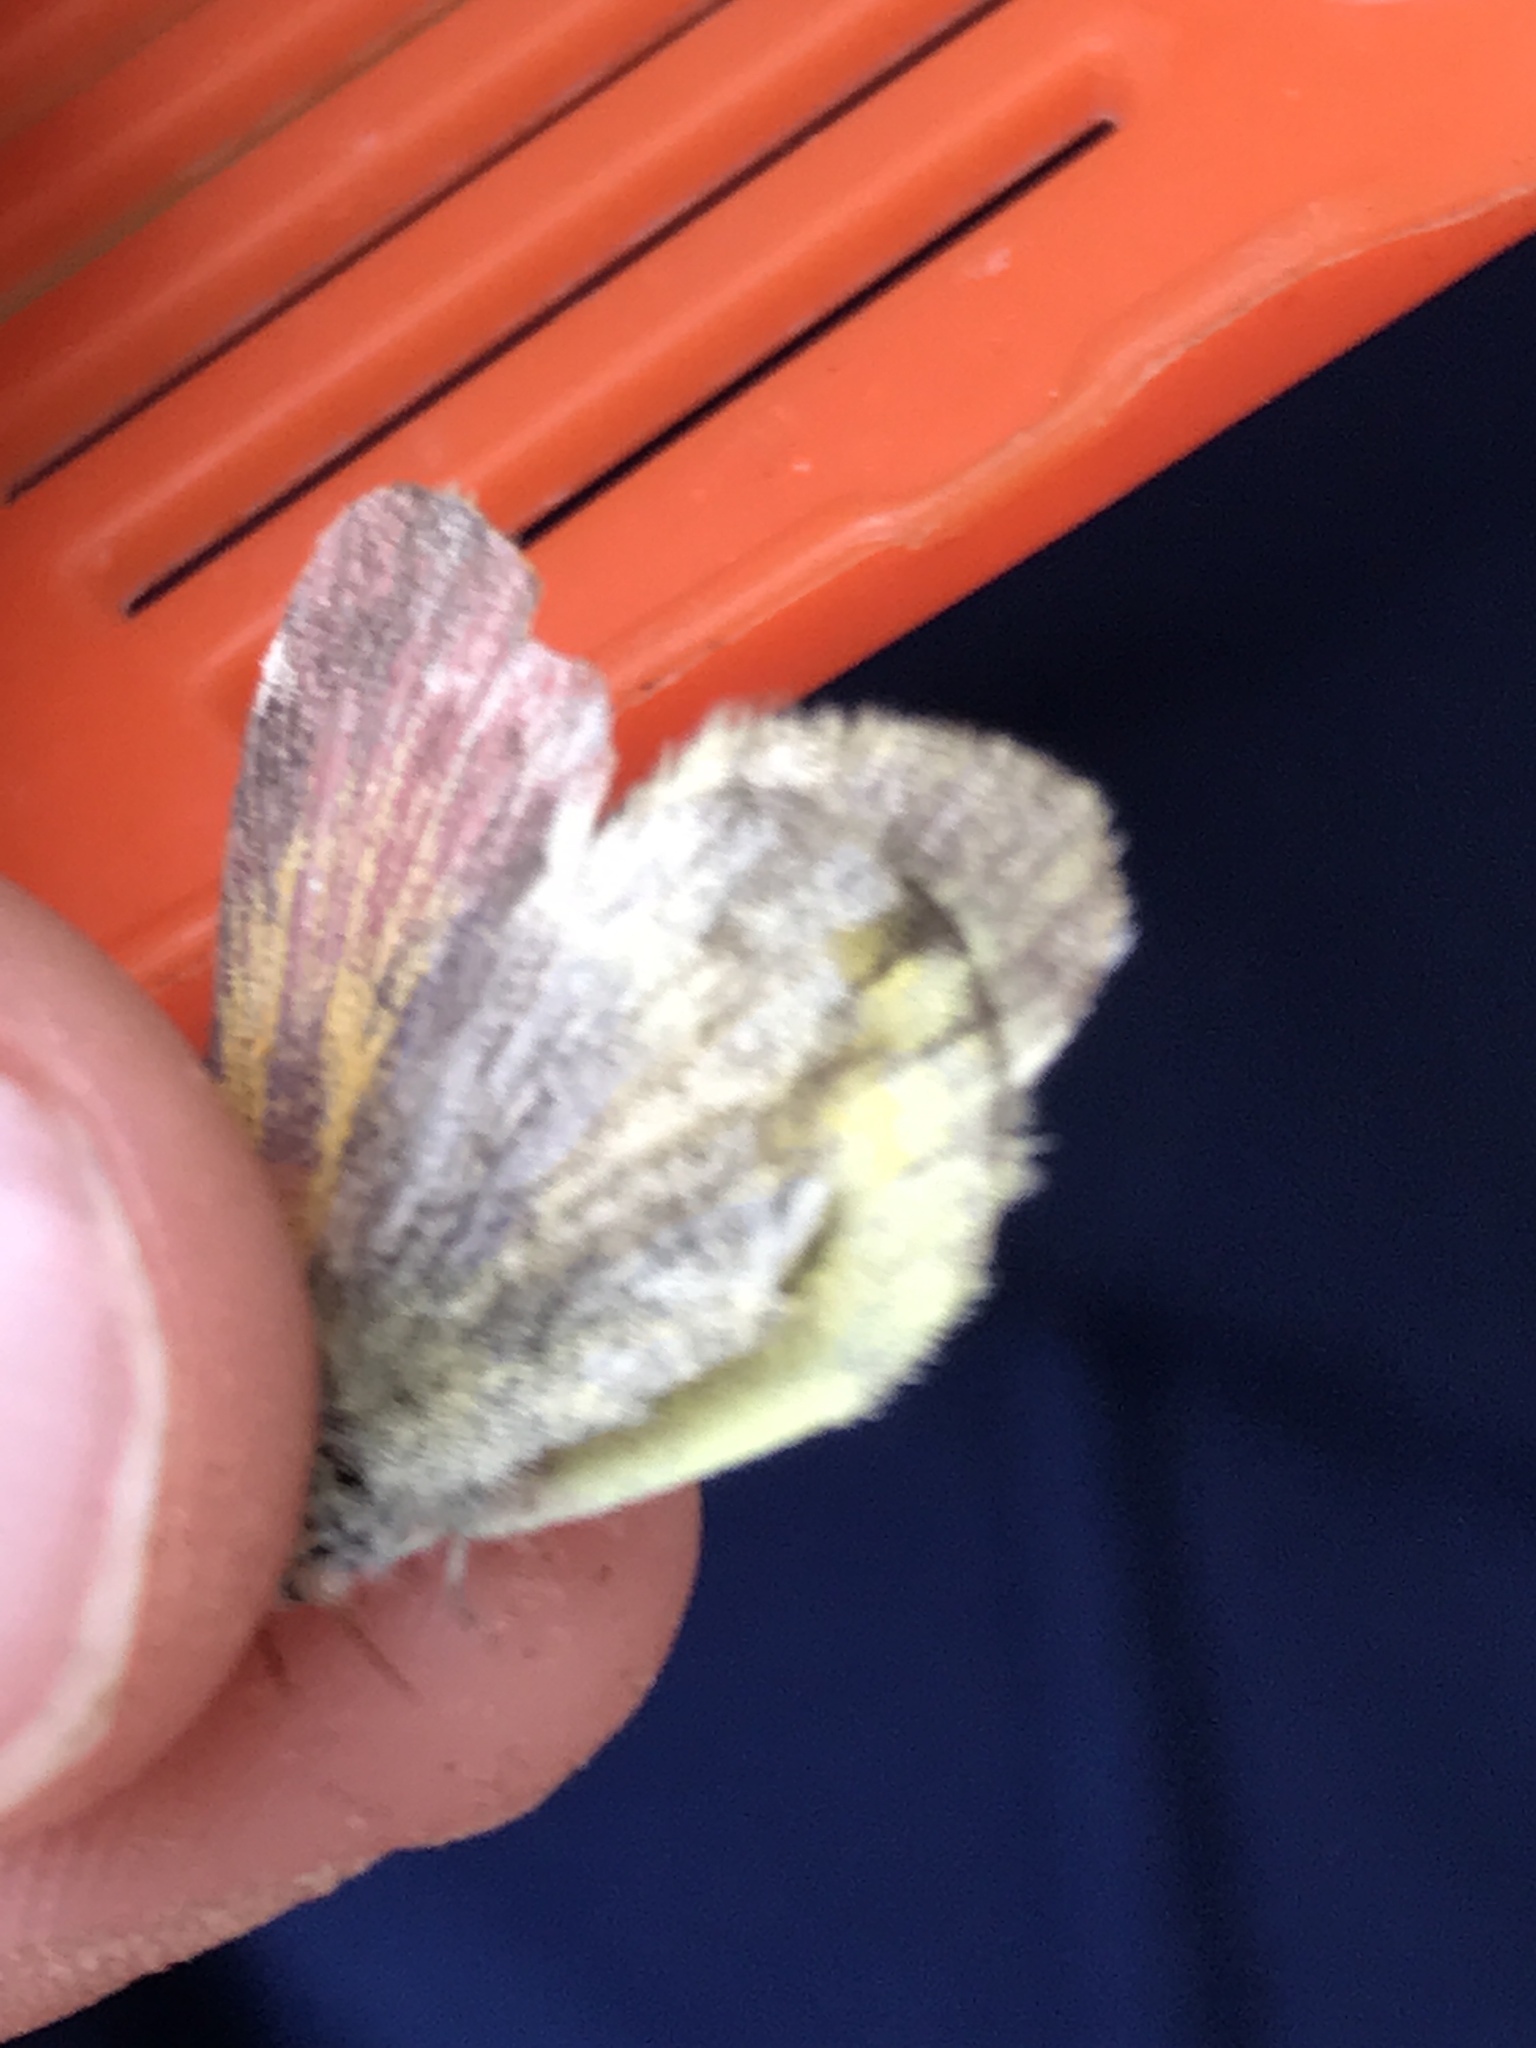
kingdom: Animalia
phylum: Arthropoda
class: Insecta
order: Lepidoptera
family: Pieridae
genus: Nathalis
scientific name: Nathalis iole
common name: Dainty sulphur
